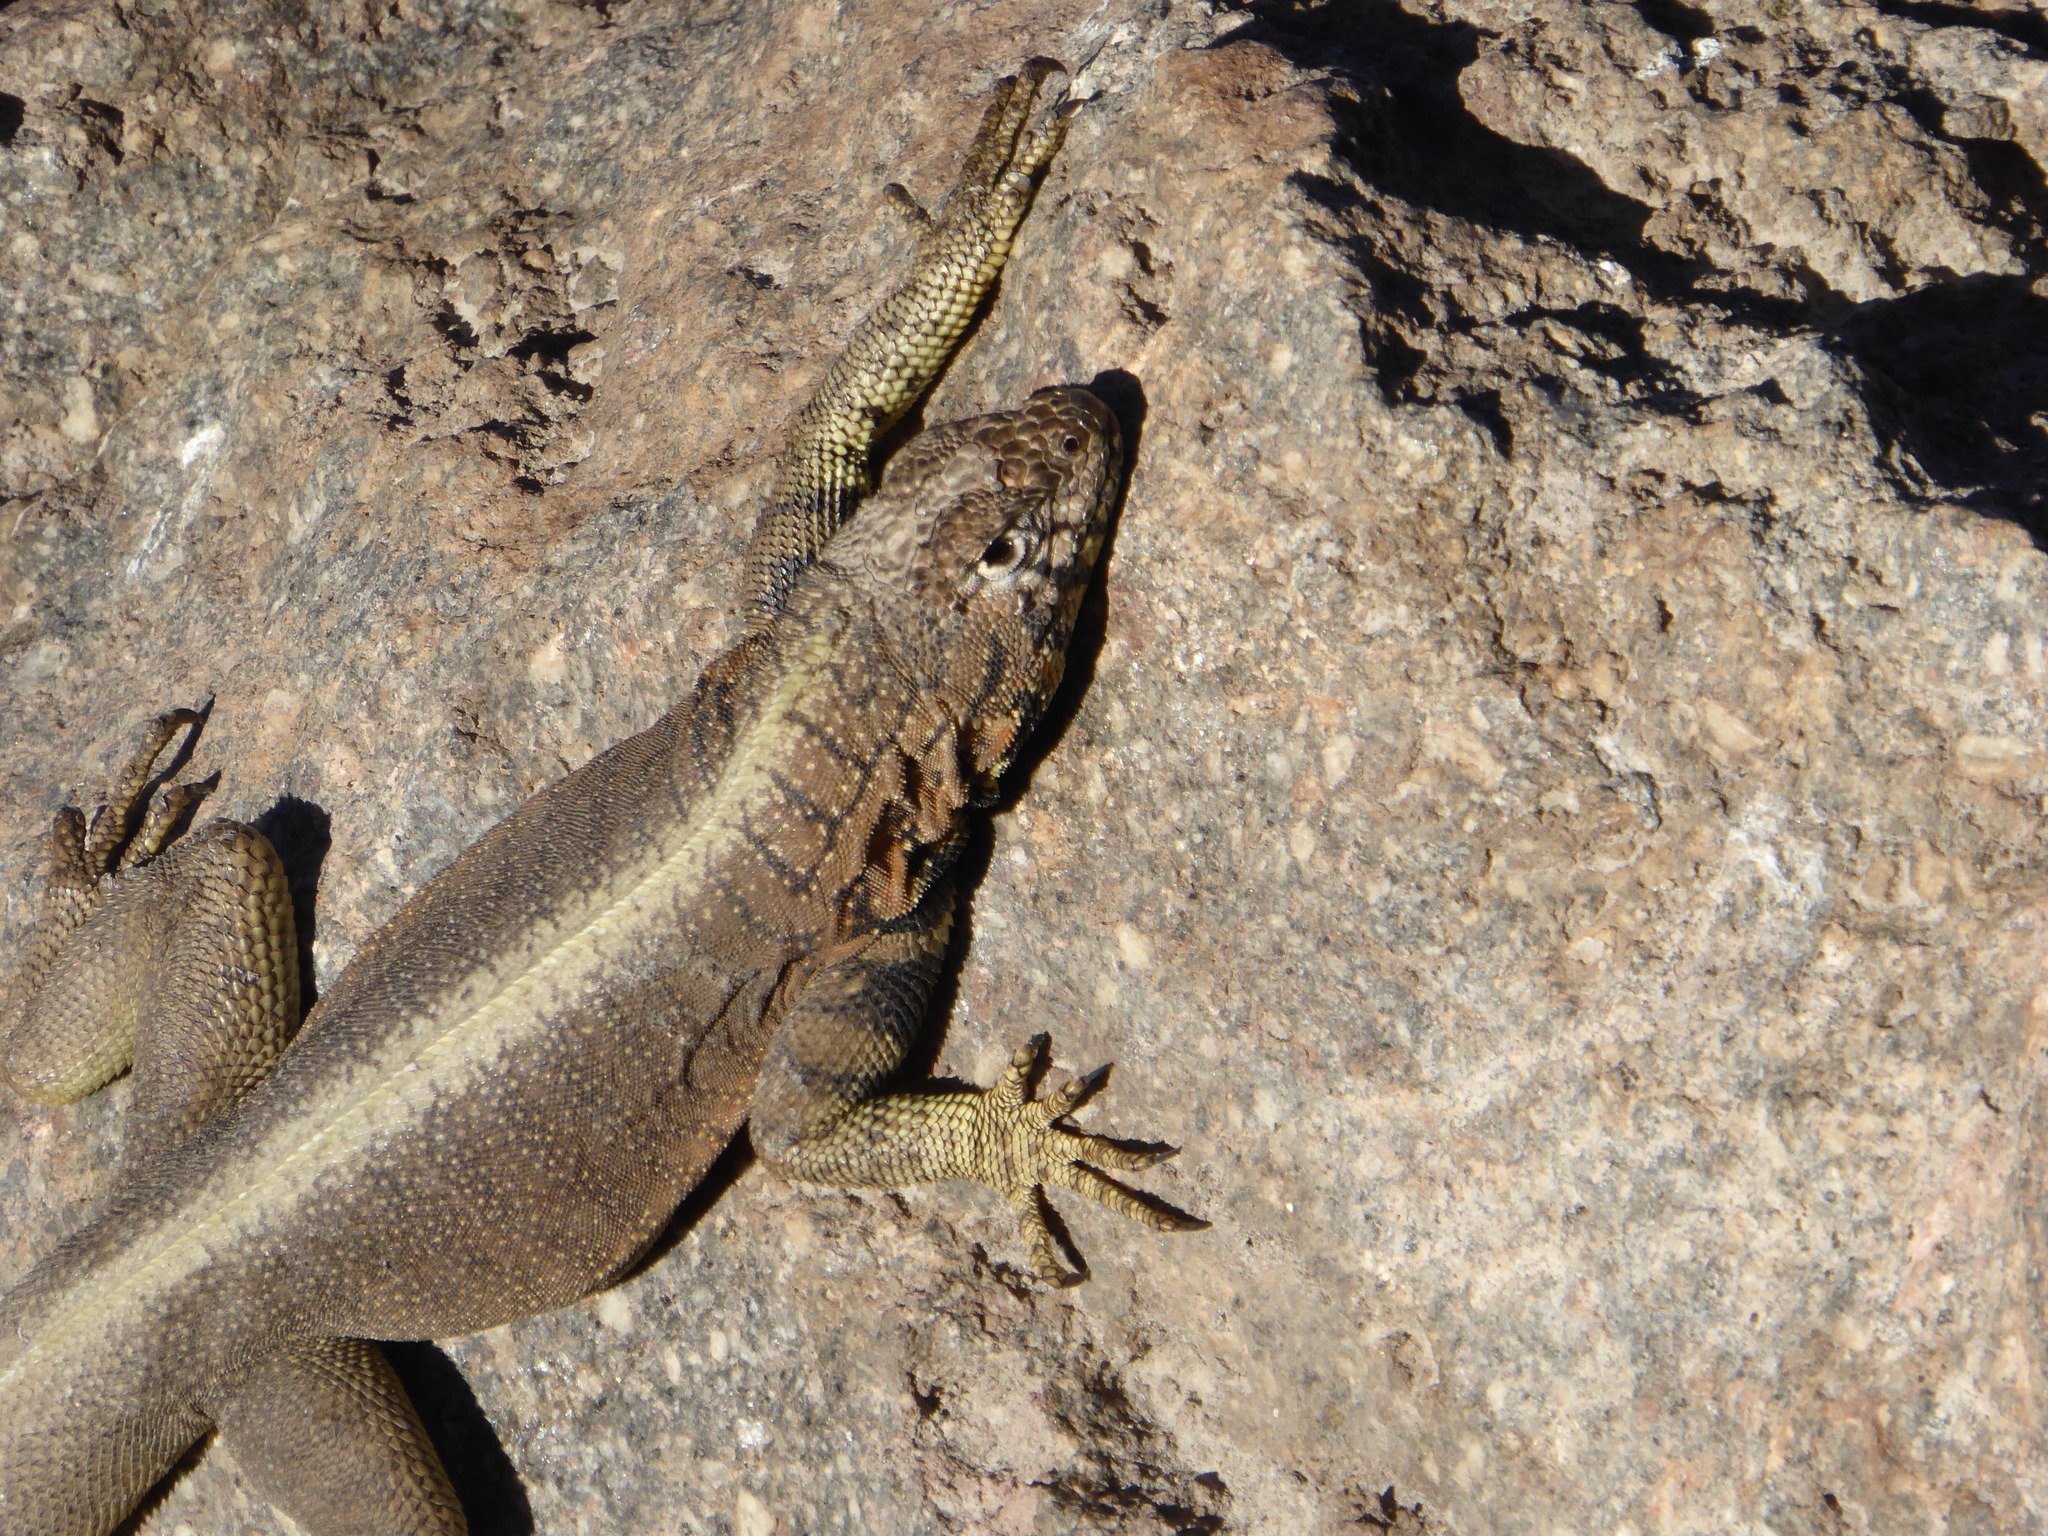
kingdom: Animalia
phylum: Chordata
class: Squamata
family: Tropiduridae
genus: Microlophus
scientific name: Microlophus peruvianus
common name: Peru pacific iguana
